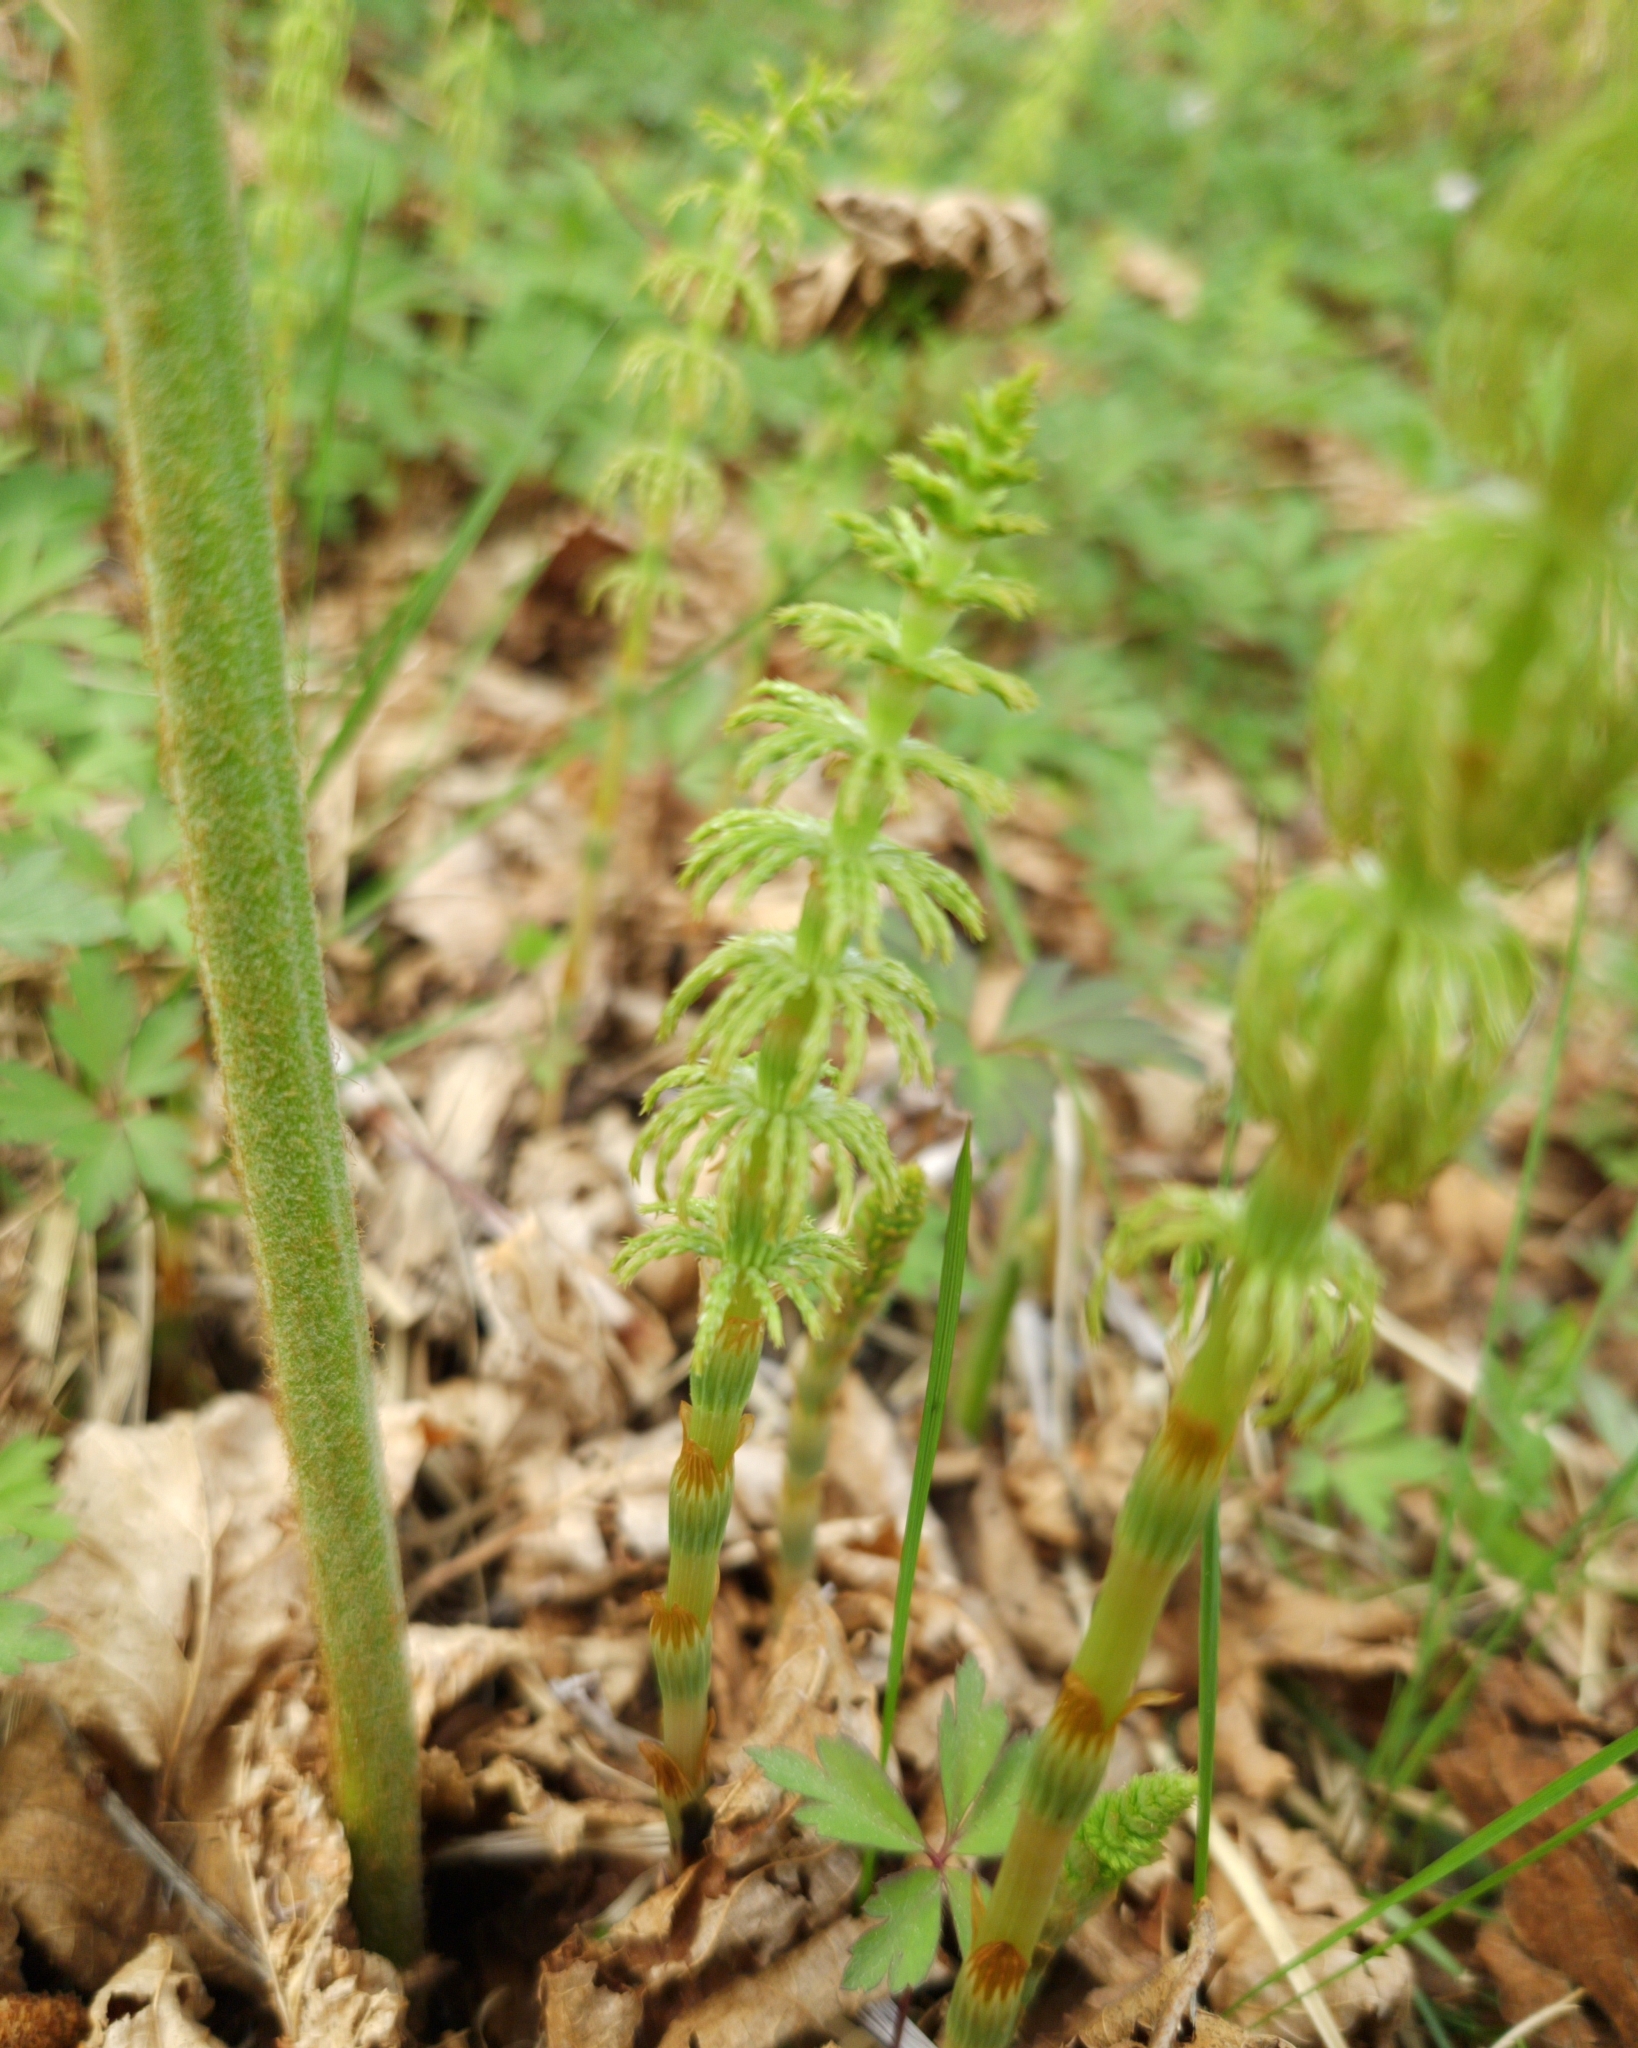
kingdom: Plantae
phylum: Tracheophyta
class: Polypodiopsida
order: Polypodiales
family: Dennstaedtiaceae
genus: Pteridium
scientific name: Pteridium aquilinum
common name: Bracken
